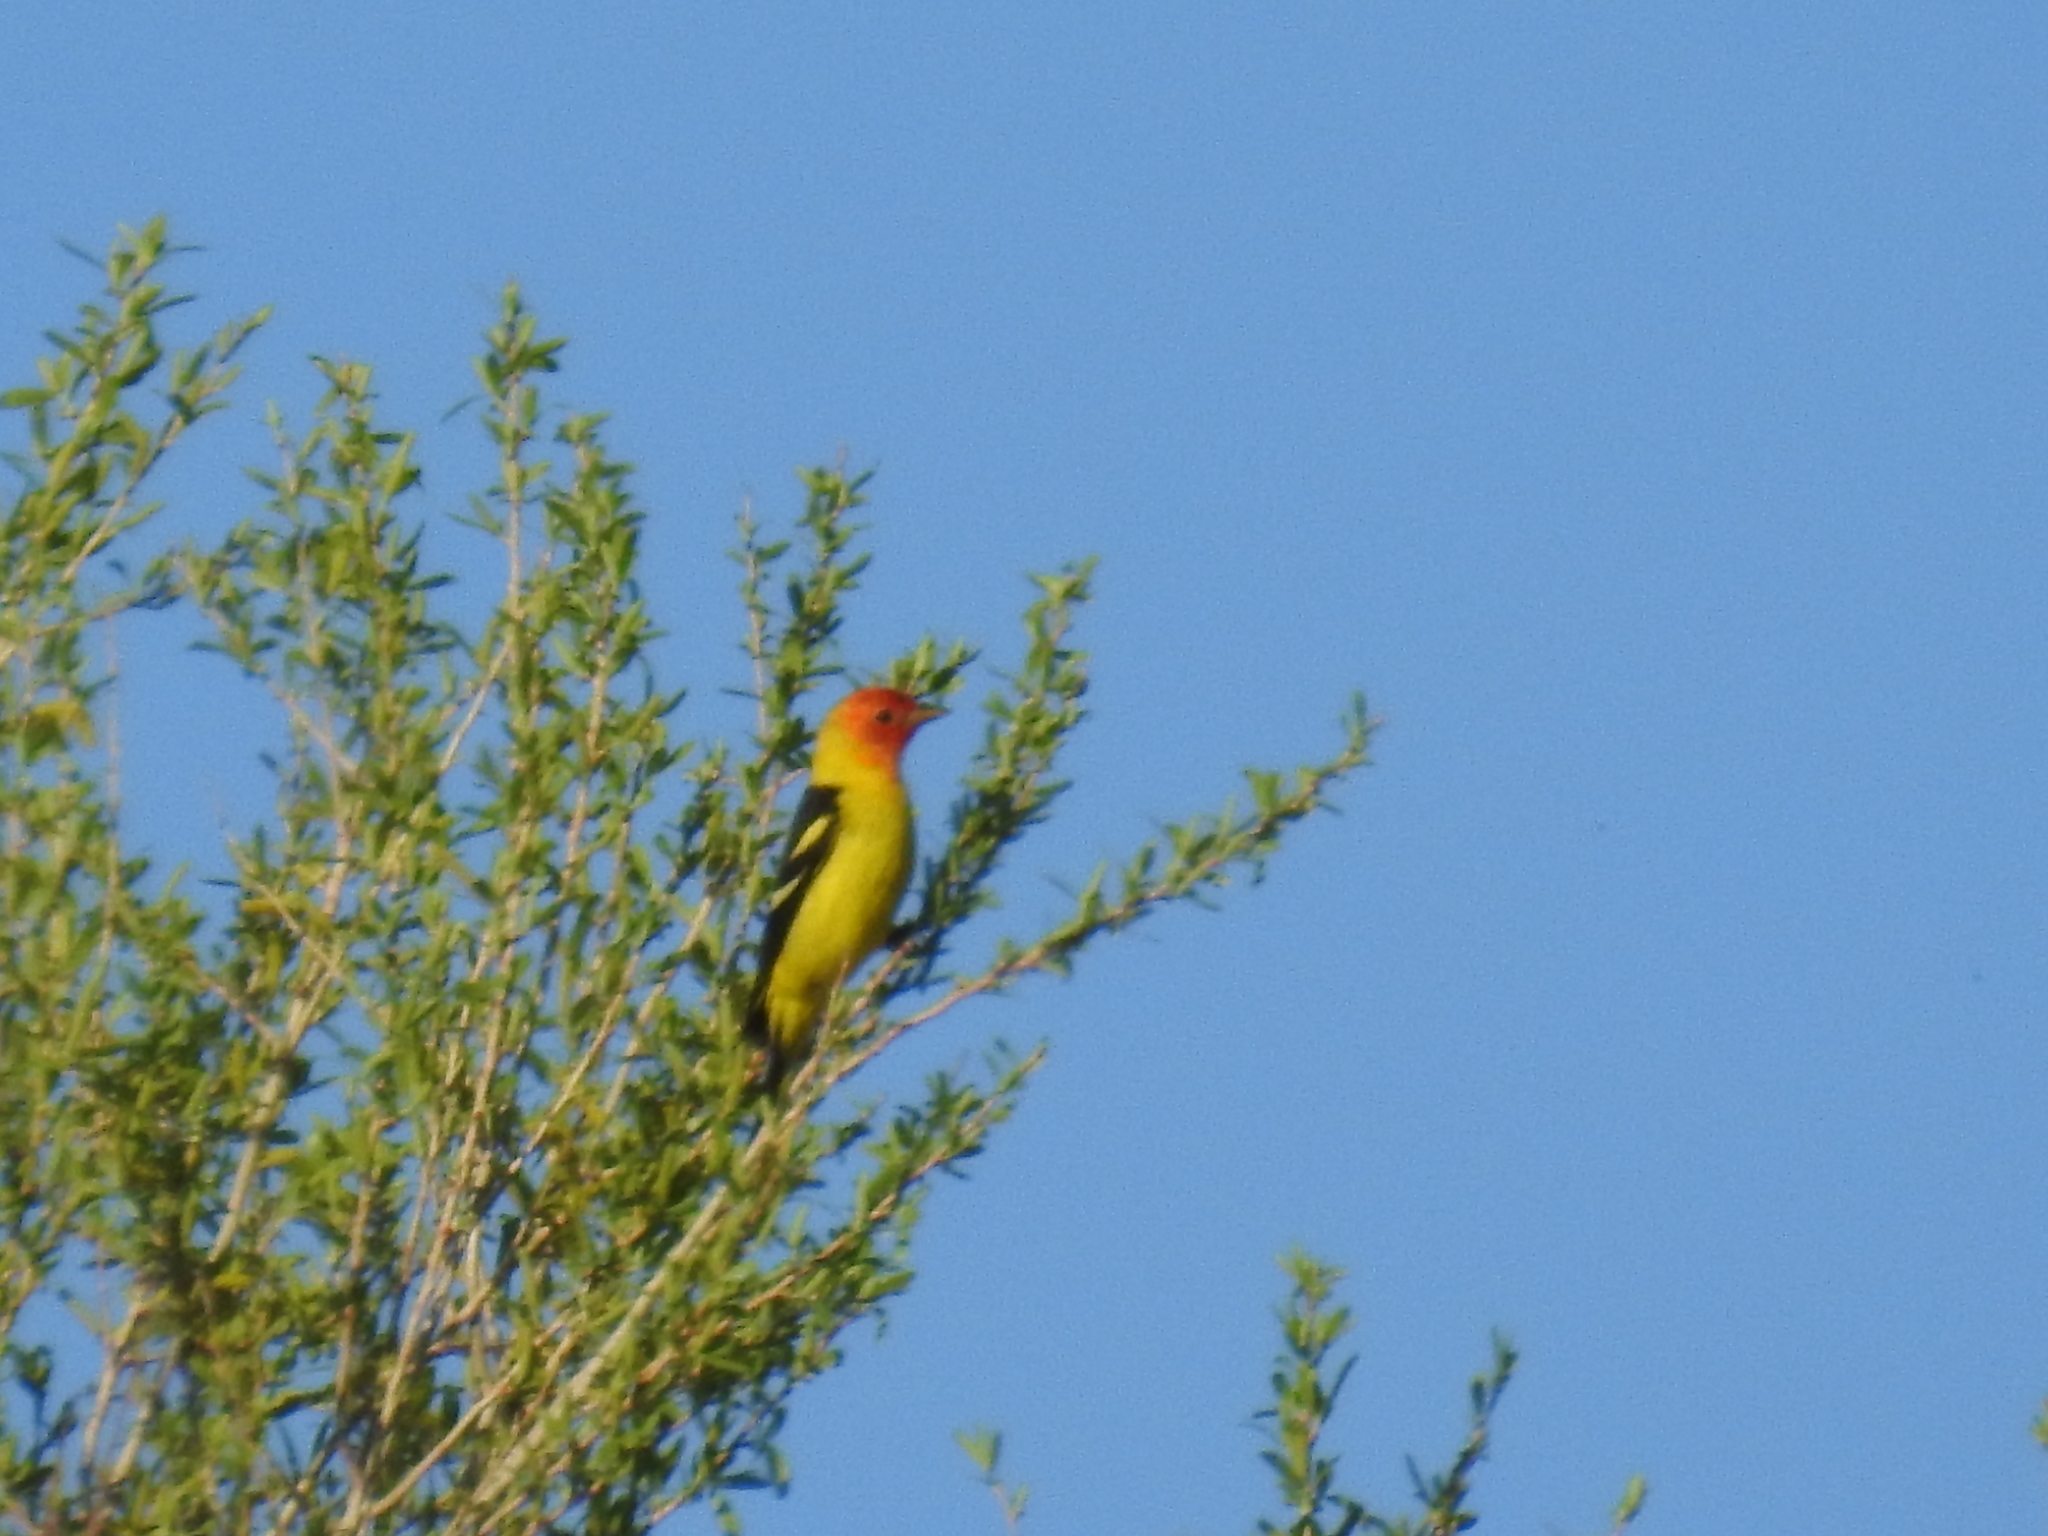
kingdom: Animalia
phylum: Chordata
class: Aves
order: Passeriformes
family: Cardinalidae
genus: Piranga
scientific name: Piranga ludoviciana
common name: Western tanager
